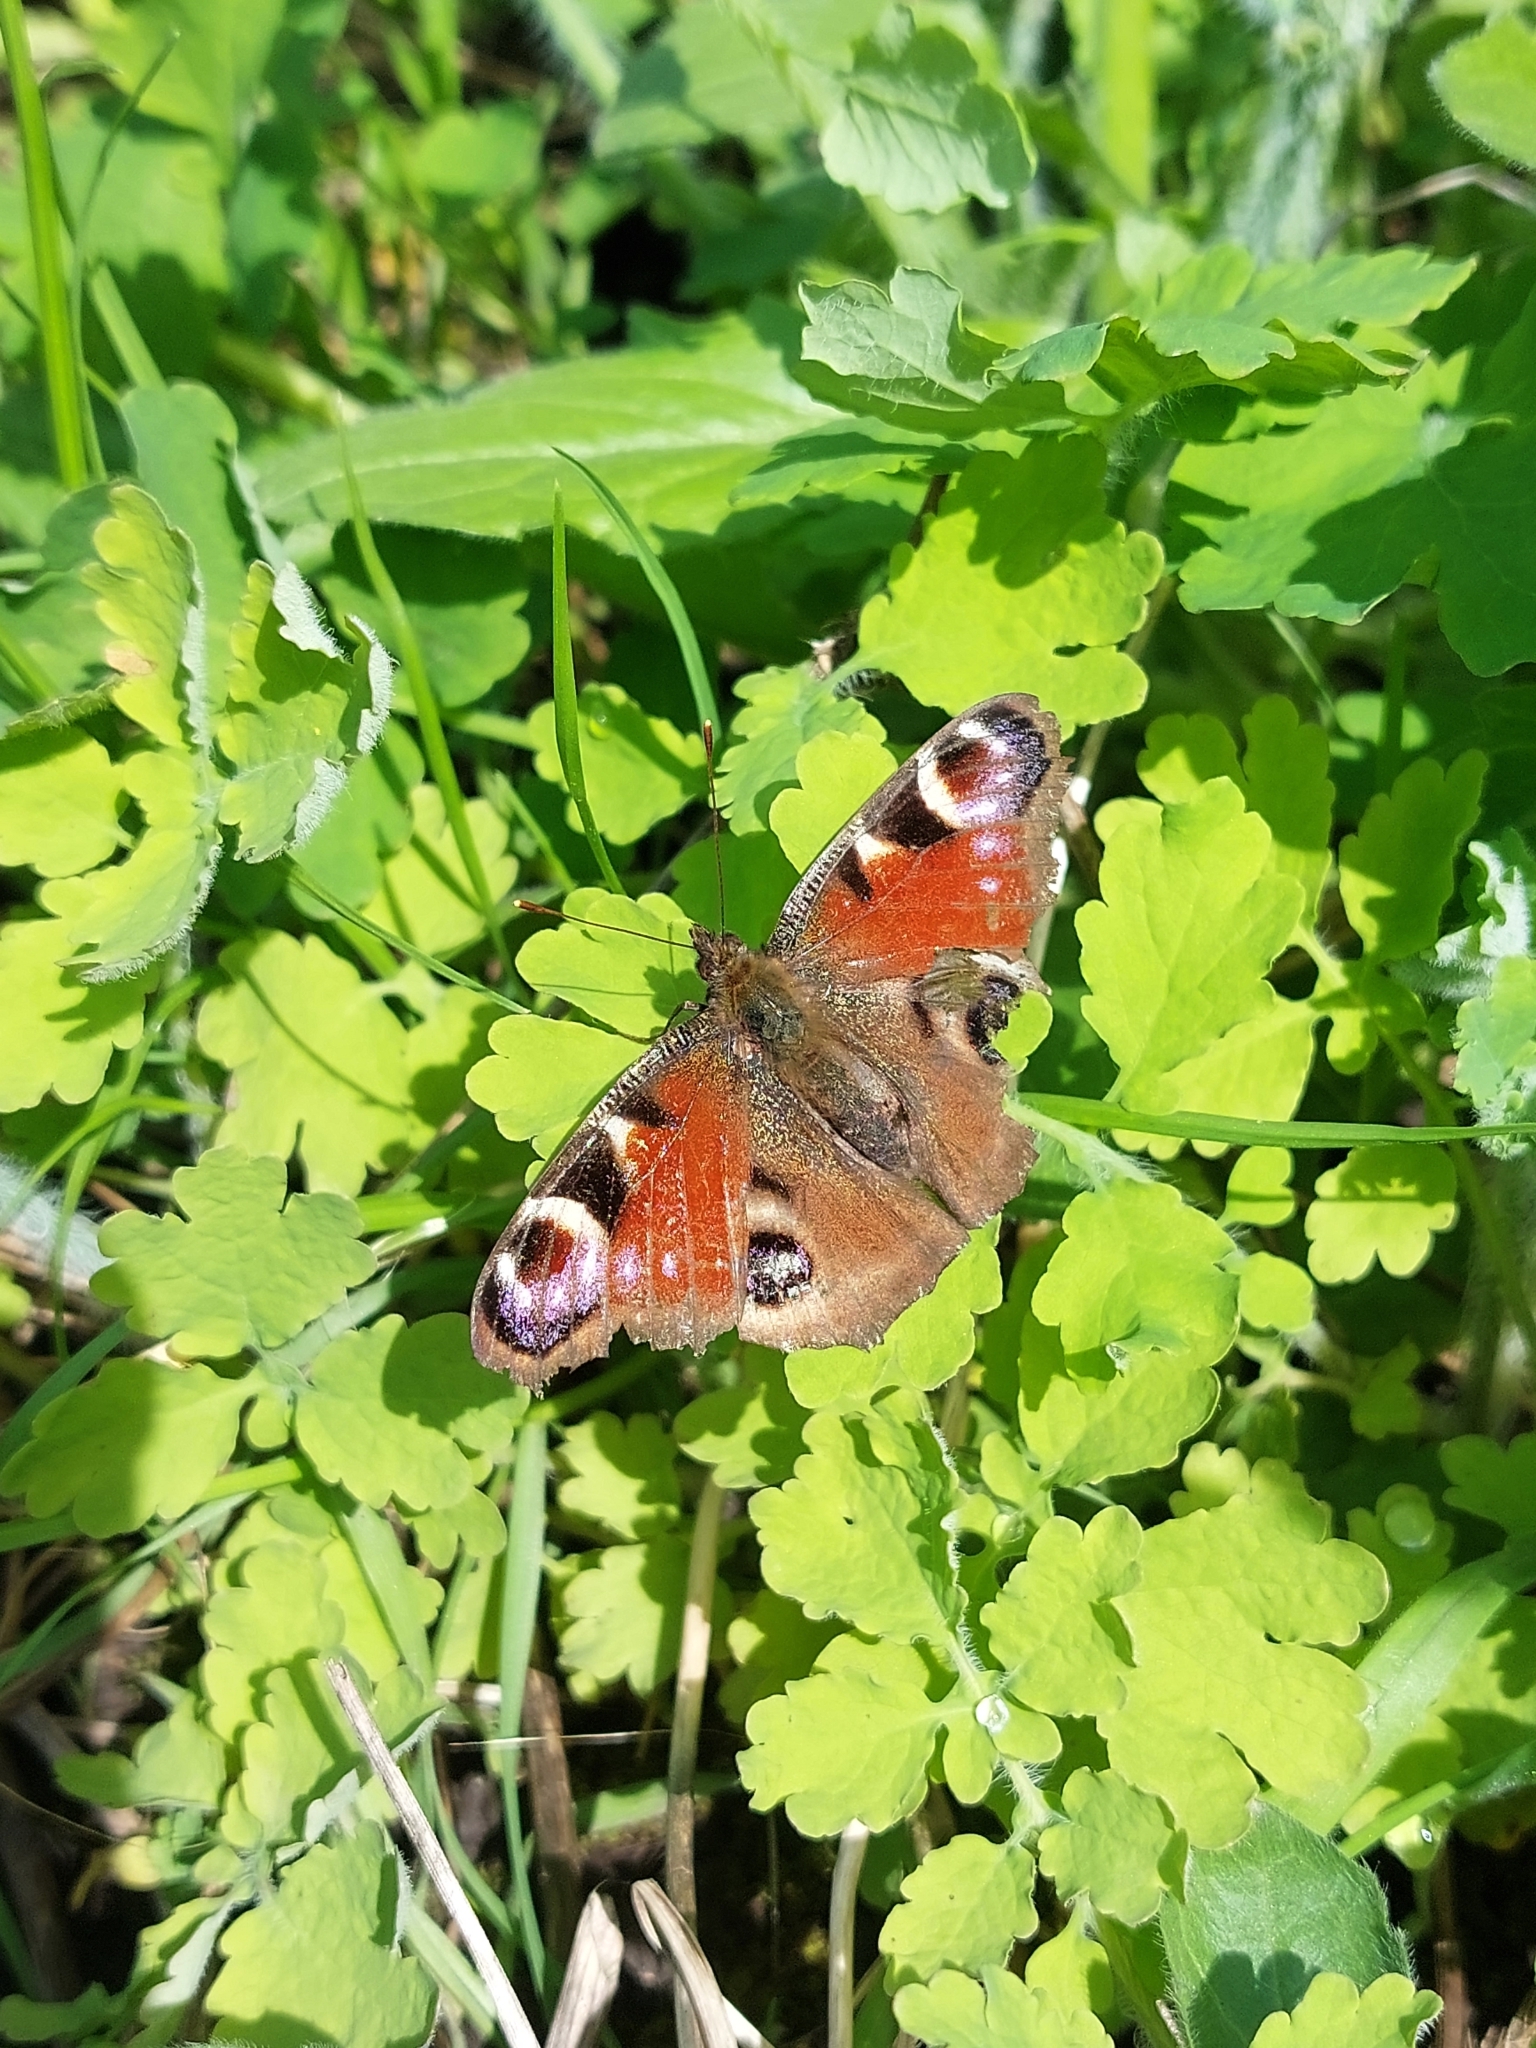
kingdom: Animalia
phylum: Arthropoda
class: Insecta
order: Lepidoptera
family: Nymphalidae
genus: Aglais
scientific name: Aglais io
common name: Peacock
